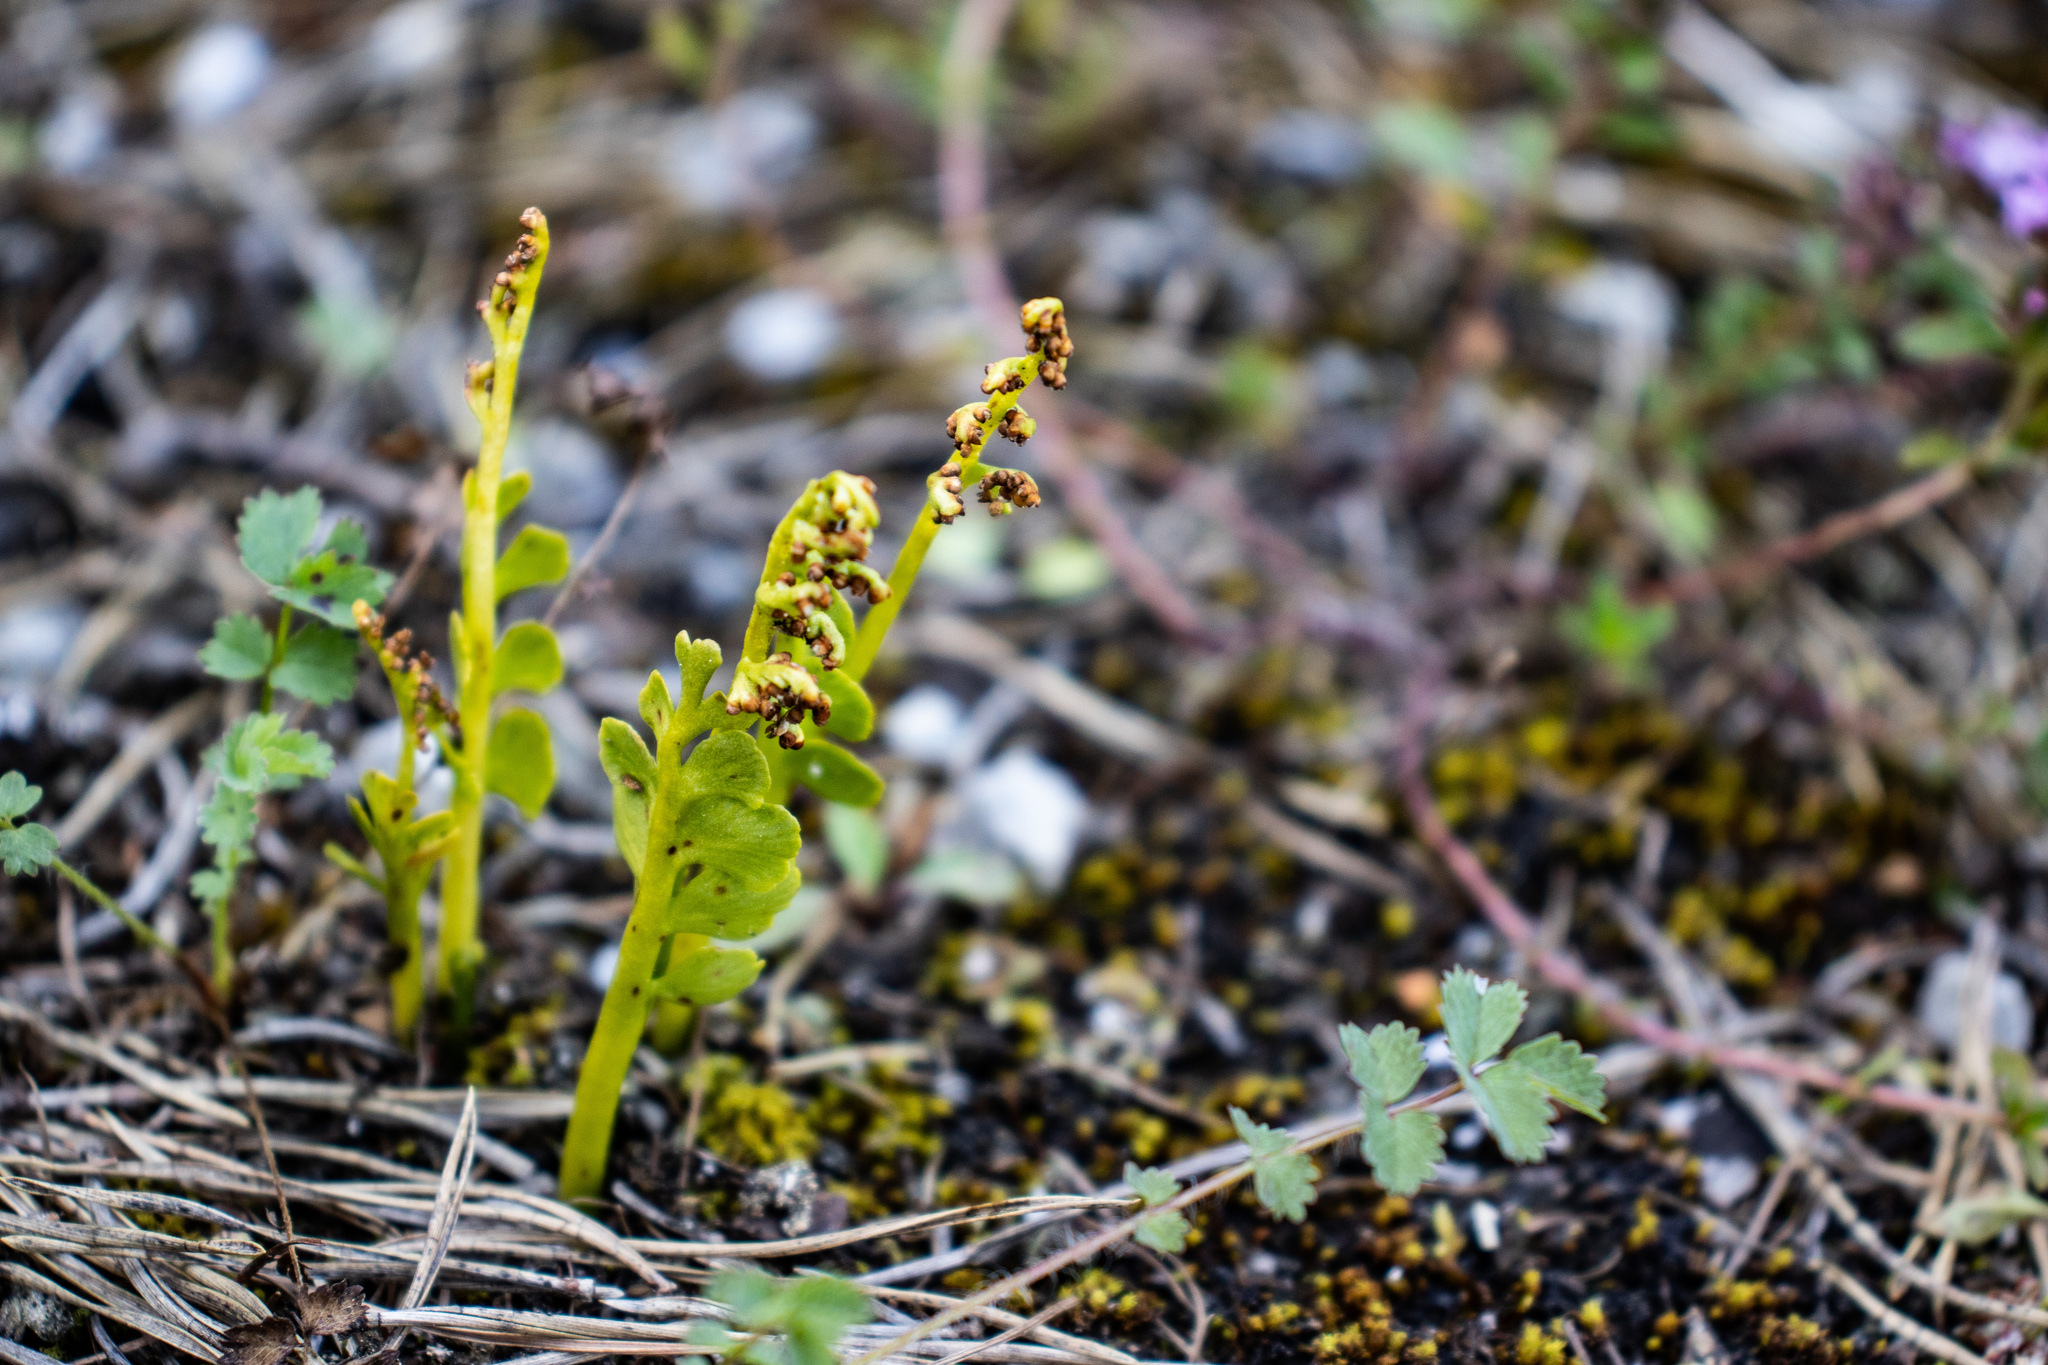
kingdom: Plantae
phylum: Tracheophyta
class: Polypodiopsida
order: Ophioglossales
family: Ophioglossaceae
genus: Botrychium
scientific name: Botrychium lunaria
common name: Moonwort
